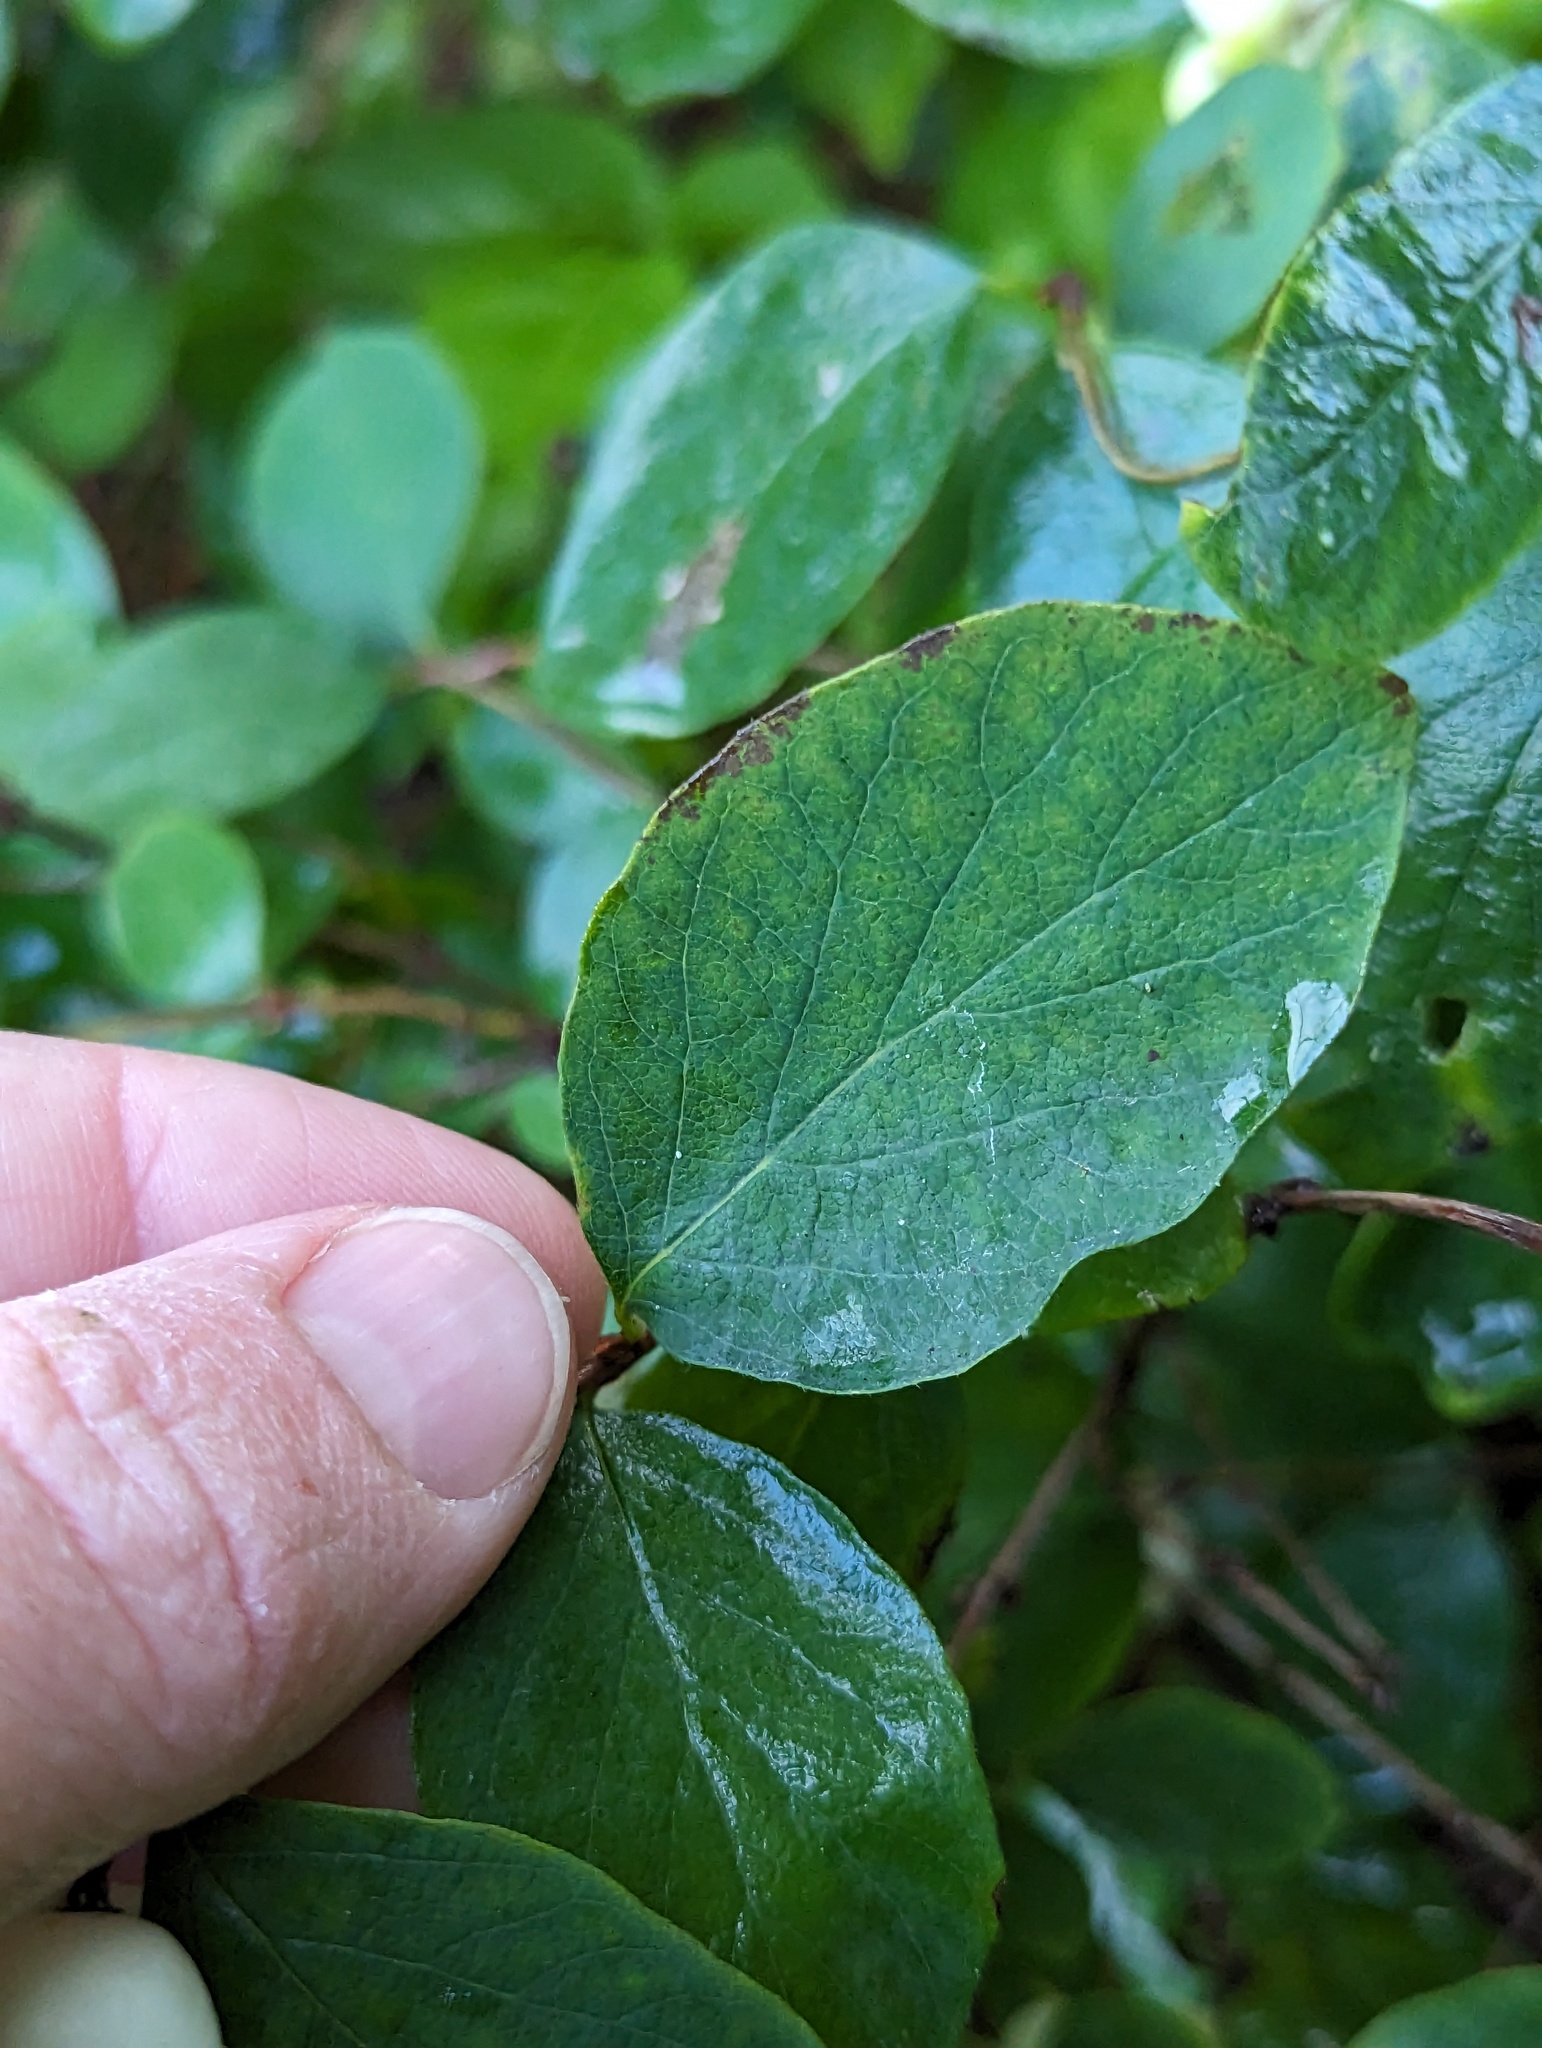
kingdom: Plantae
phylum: Tracheophyta
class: Magnoliopsida
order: Dipsacales
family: Caprifoliaceae
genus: Symphoricarpos
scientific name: Symphoricarpos albus
